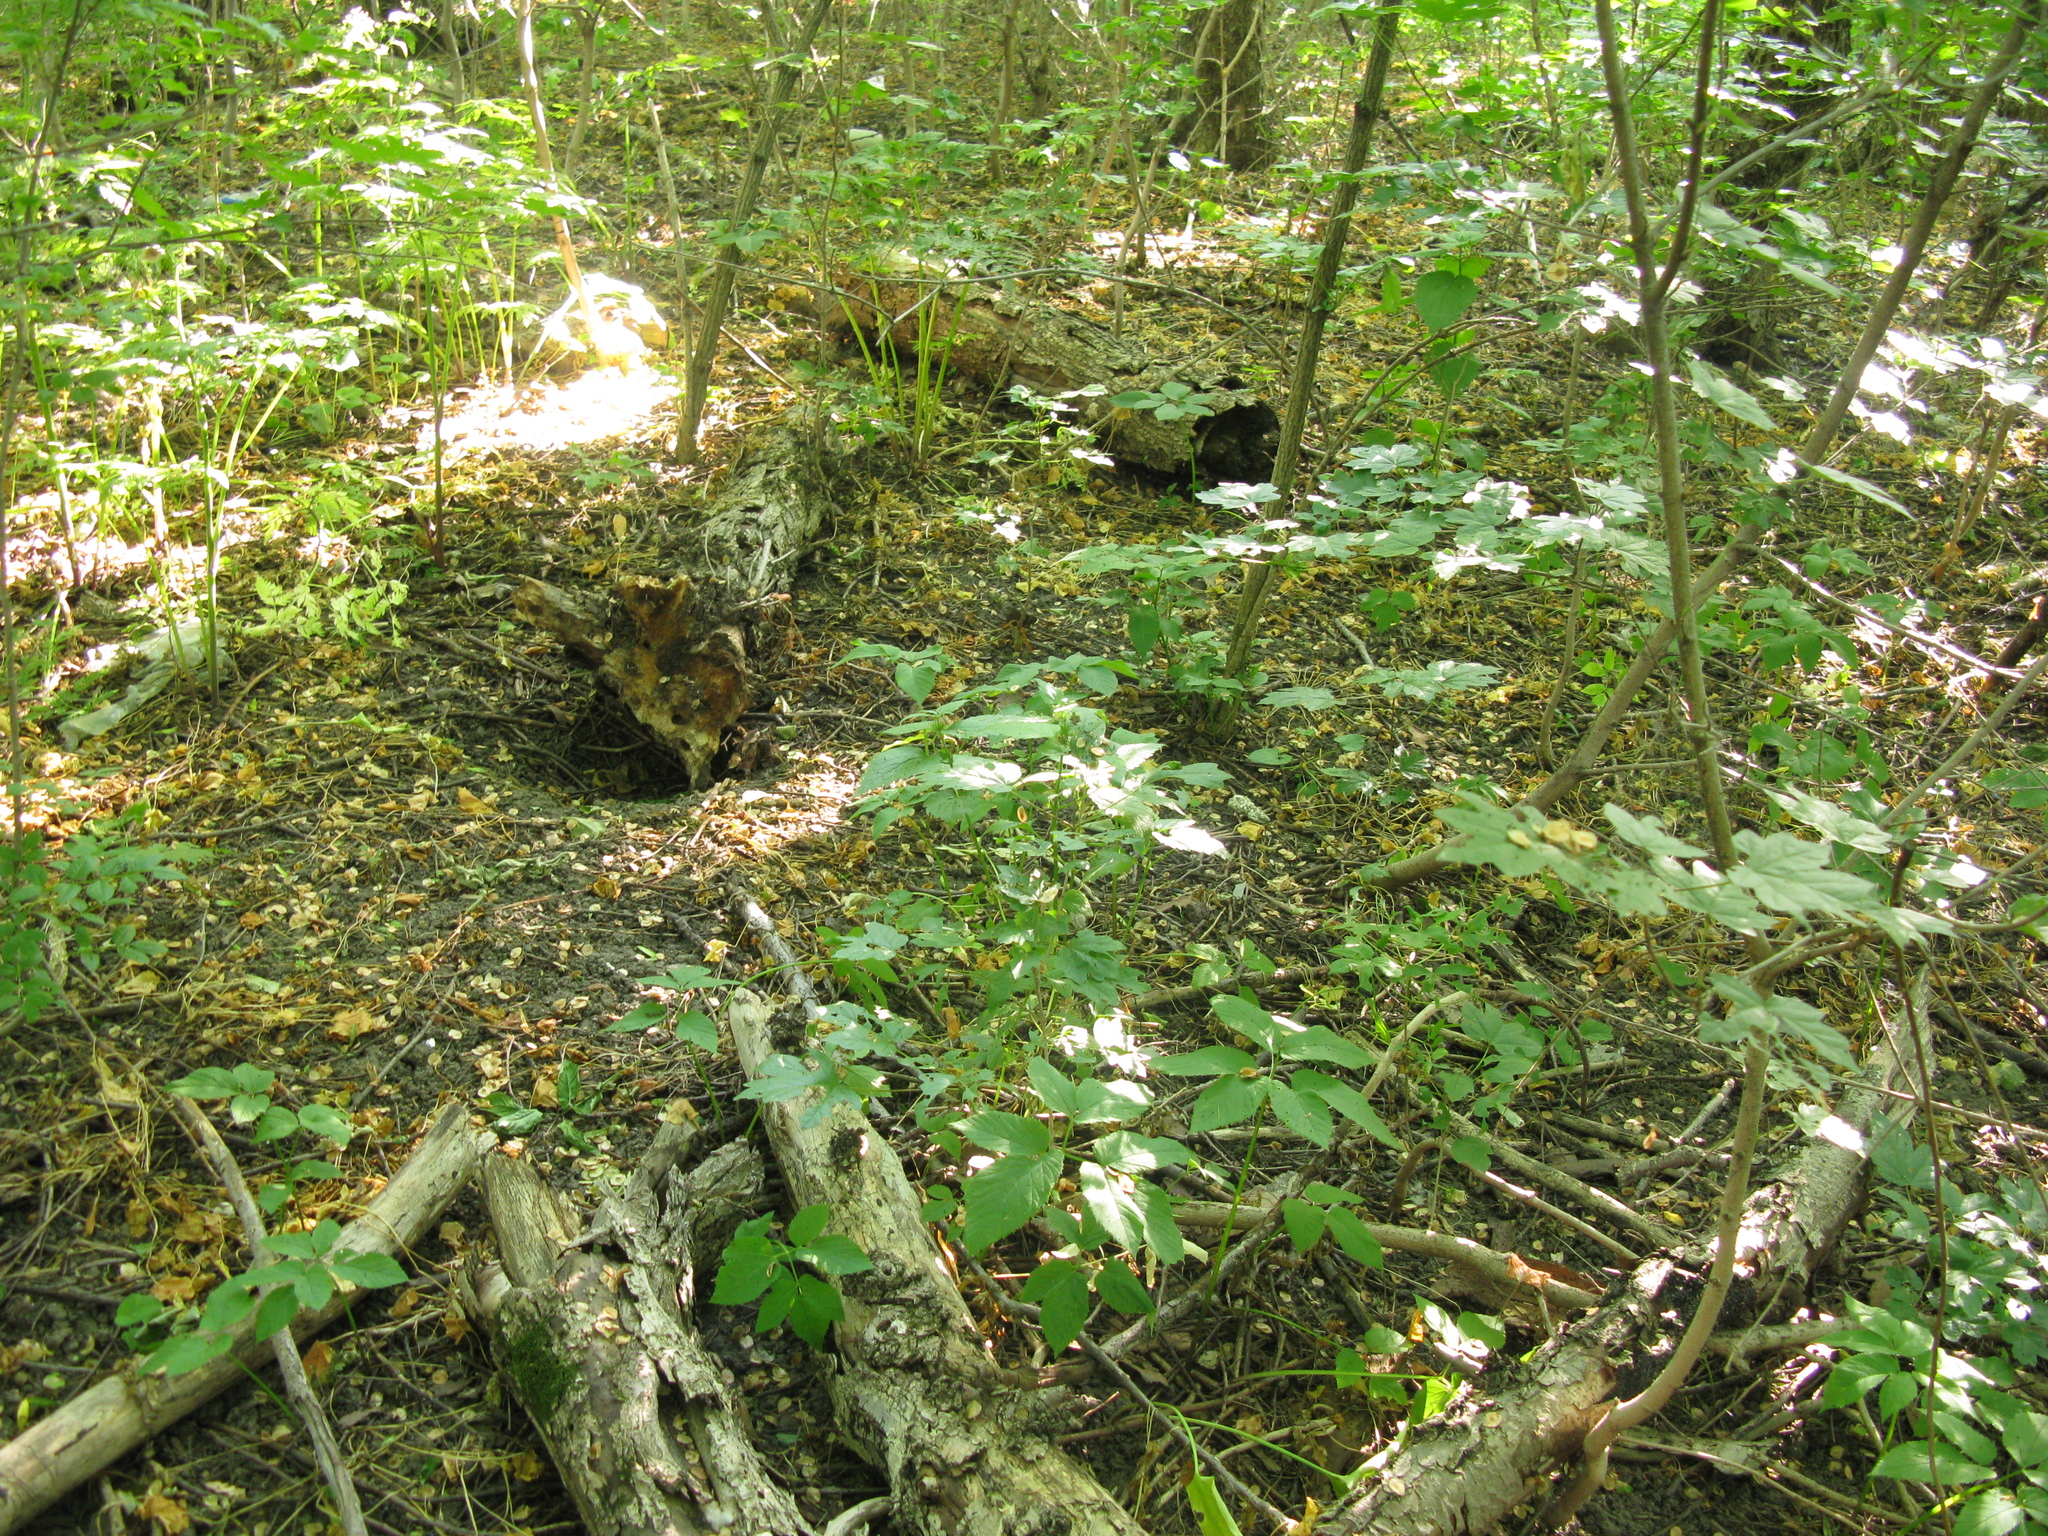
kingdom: Plantae
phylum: Tracheophyta
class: Magnoliopsida
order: Sapindales
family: Sapindaceae
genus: Acer
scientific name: Acer campestre
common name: Field maple
